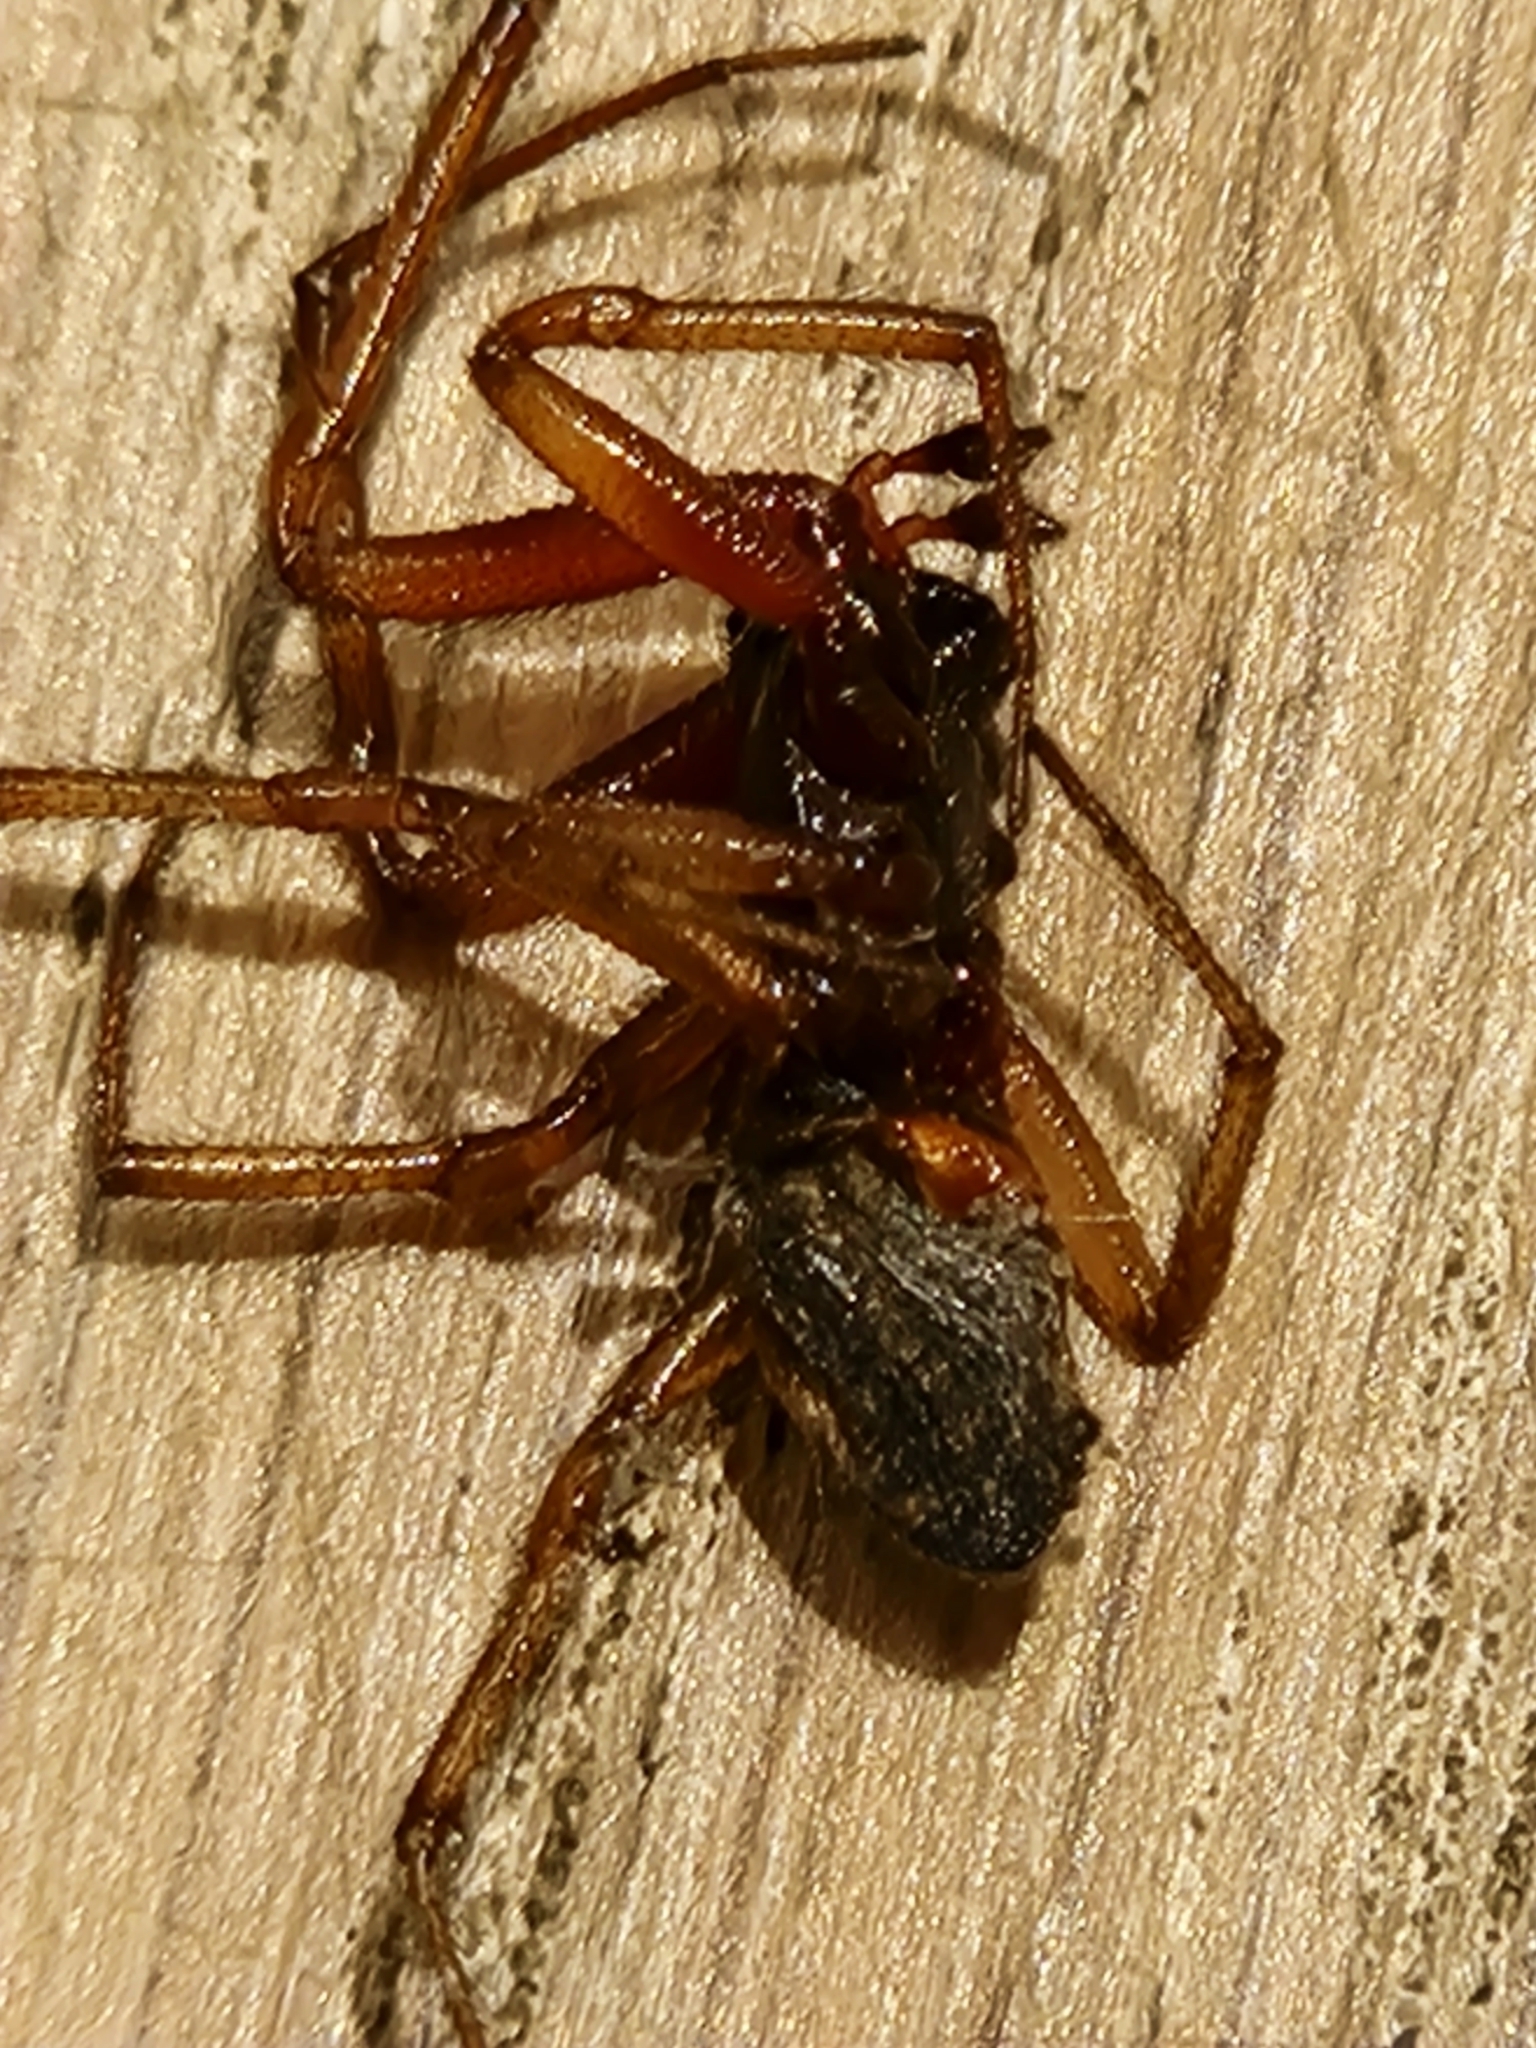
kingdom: Animalia
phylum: Arthropoda
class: Arachnida
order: Araneae
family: Theridiidae
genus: Steatoda
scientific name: Steatoda nobilis
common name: Cobweb weaver
